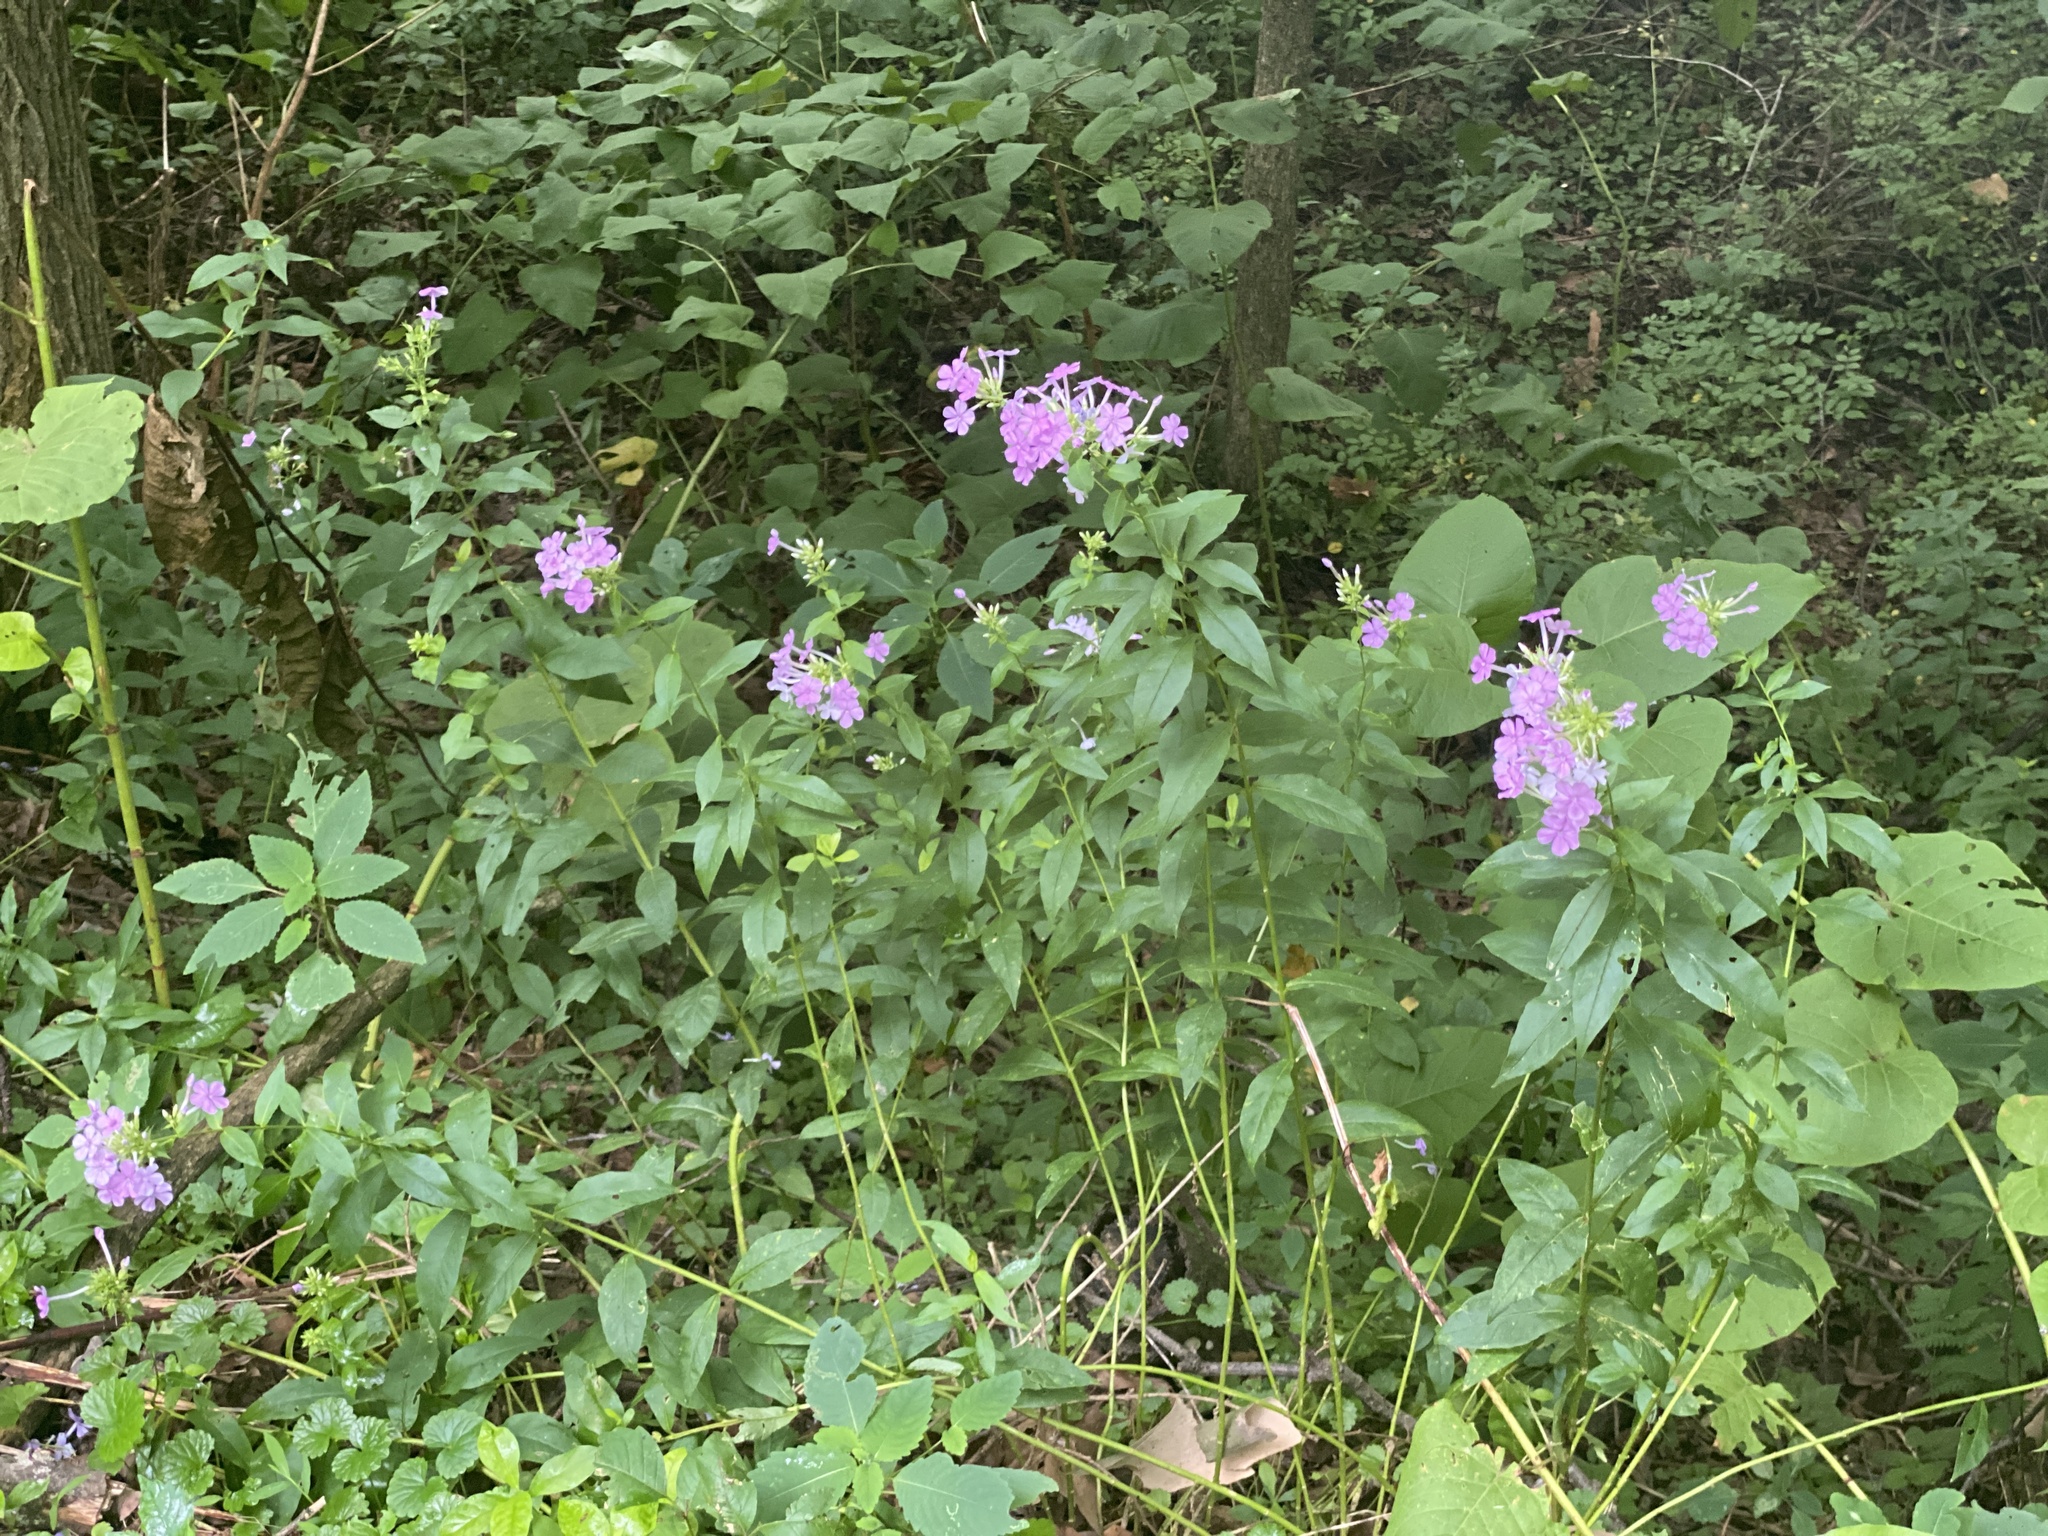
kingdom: Plantae
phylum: Tracheophyta
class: Magnoliopsida
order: Ericales
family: Polemoniaceae
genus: Phlox
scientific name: Phlox paniculata
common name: Fall phlox
